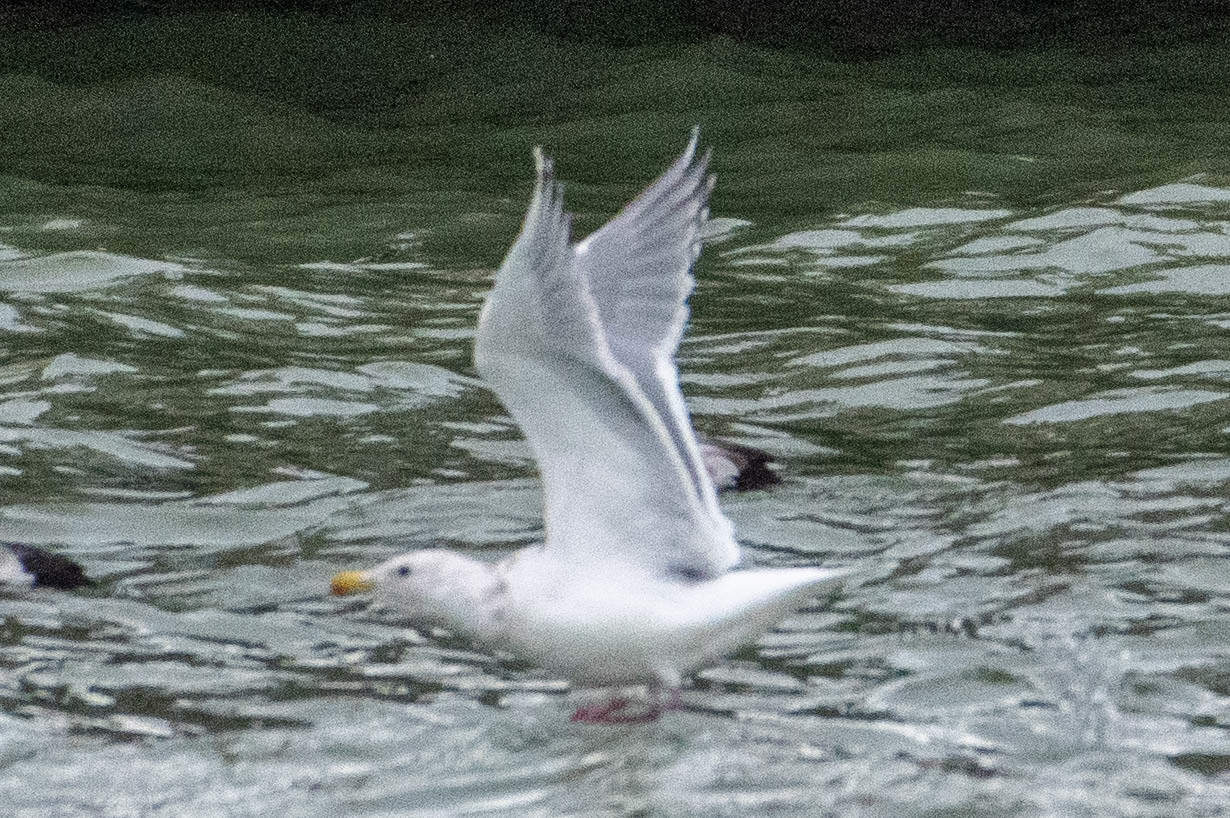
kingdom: Animalia
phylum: Chordata
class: Aves
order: Charadriiformes
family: Laridae
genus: Larus
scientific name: Larus glaucescens
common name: Glaucous-winged gull
